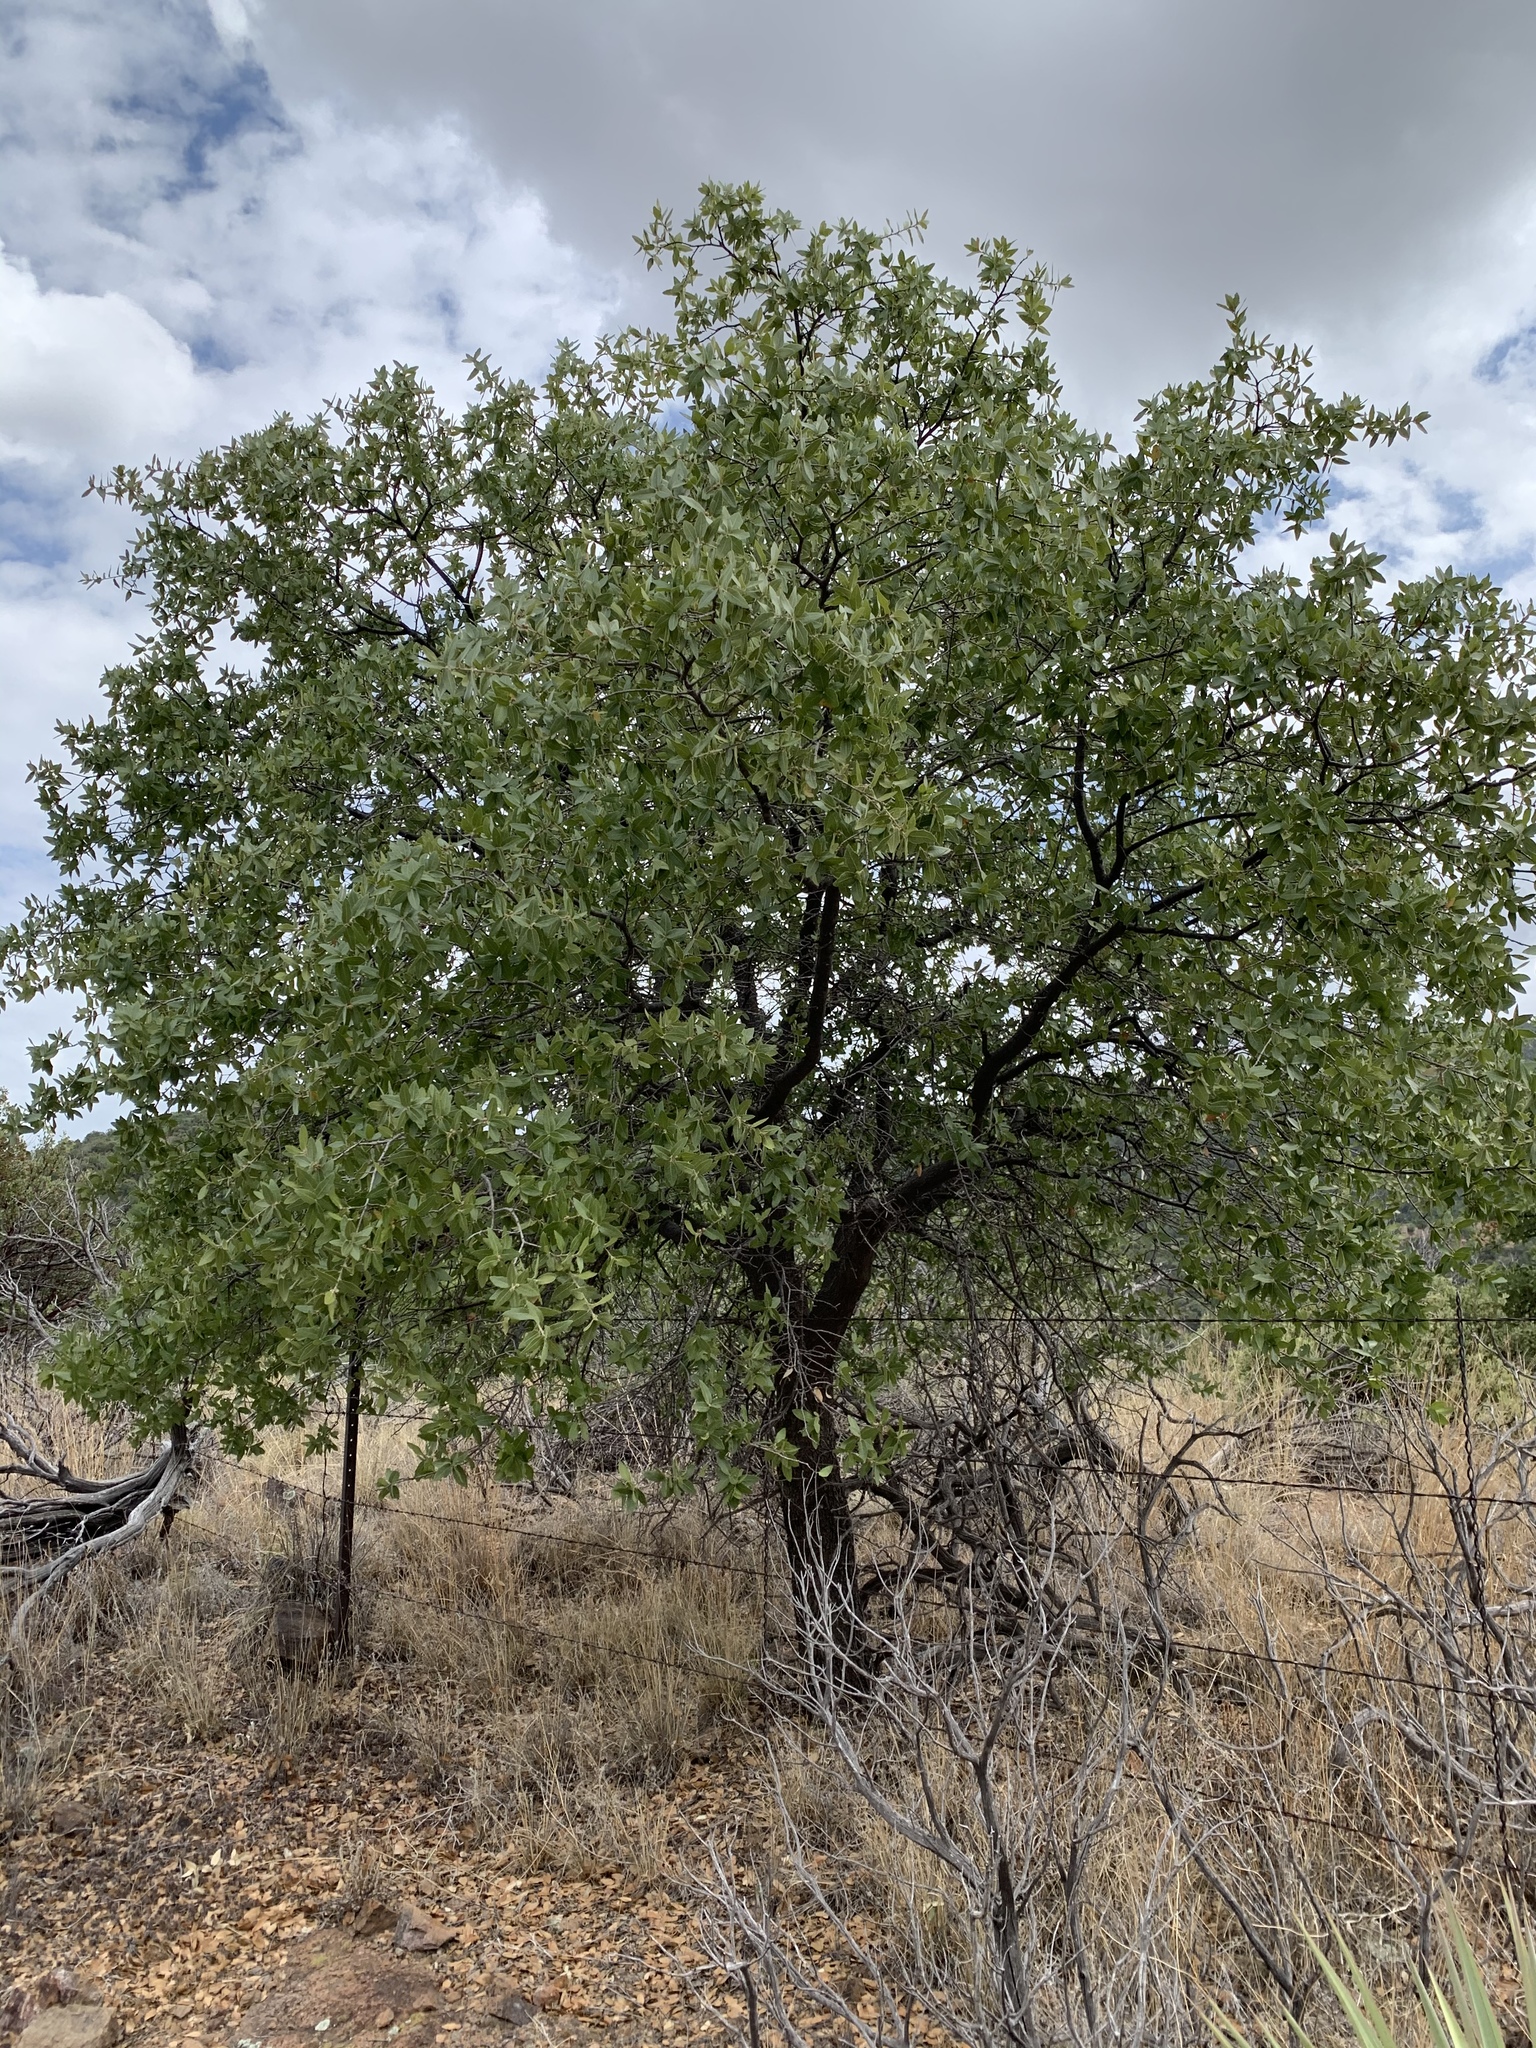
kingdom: Plantae
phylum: Tracheophyta
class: Magnoliopsida
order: Fagales
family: Fagaceae
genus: Quercus
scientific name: Quercus emoryi
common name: Emory oak
